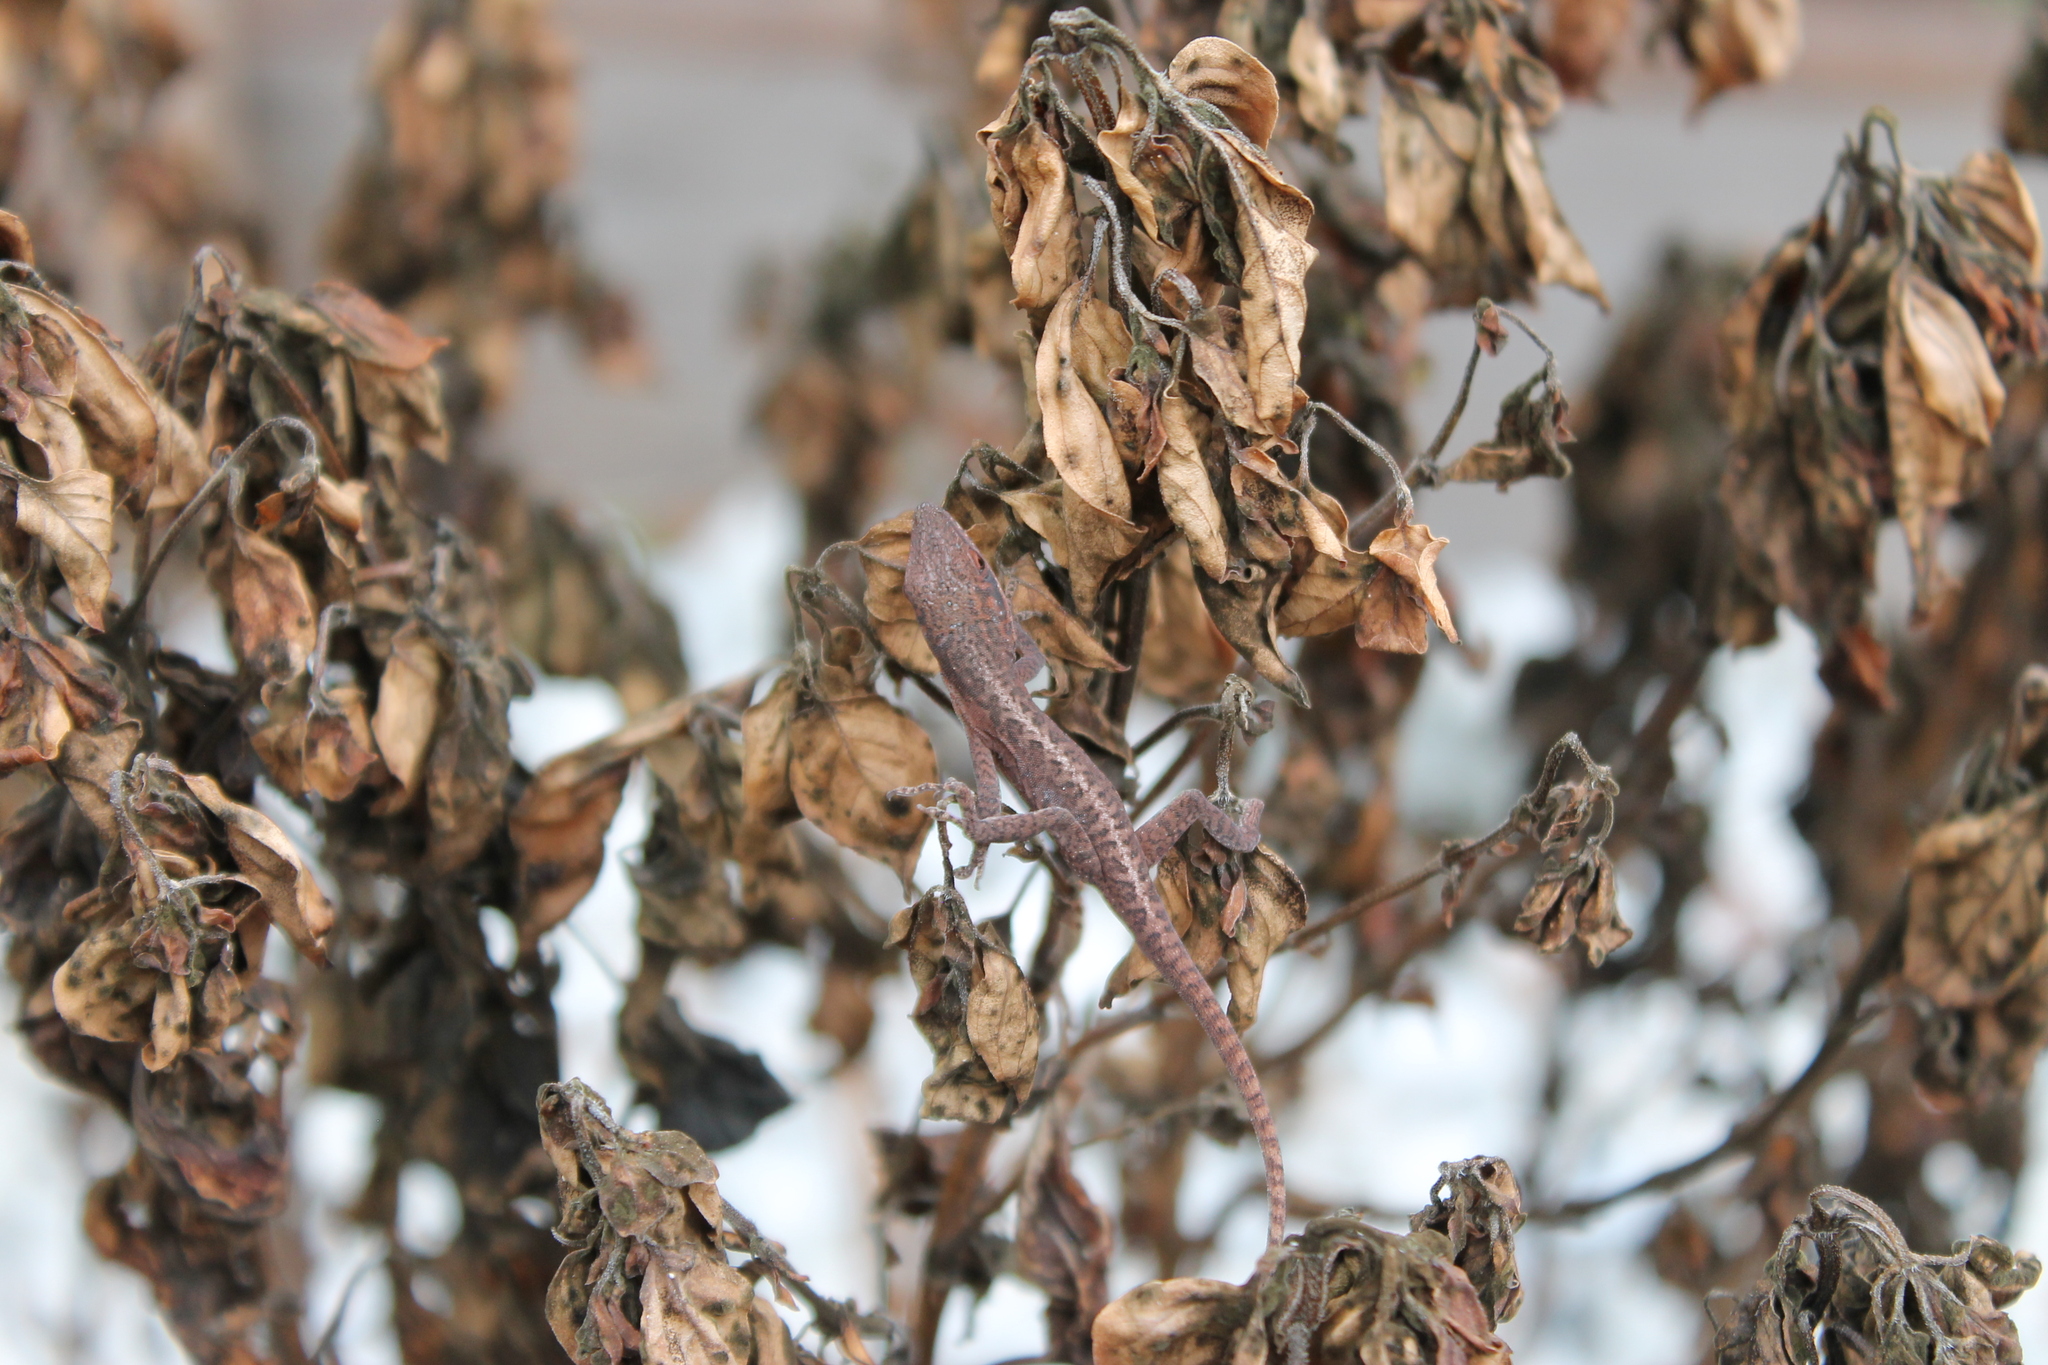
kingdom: Animalia
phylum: Chordata
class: Squamata
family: Dactyloidae
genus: Anolis
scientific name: Anolis carolinensis
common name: Green anole
